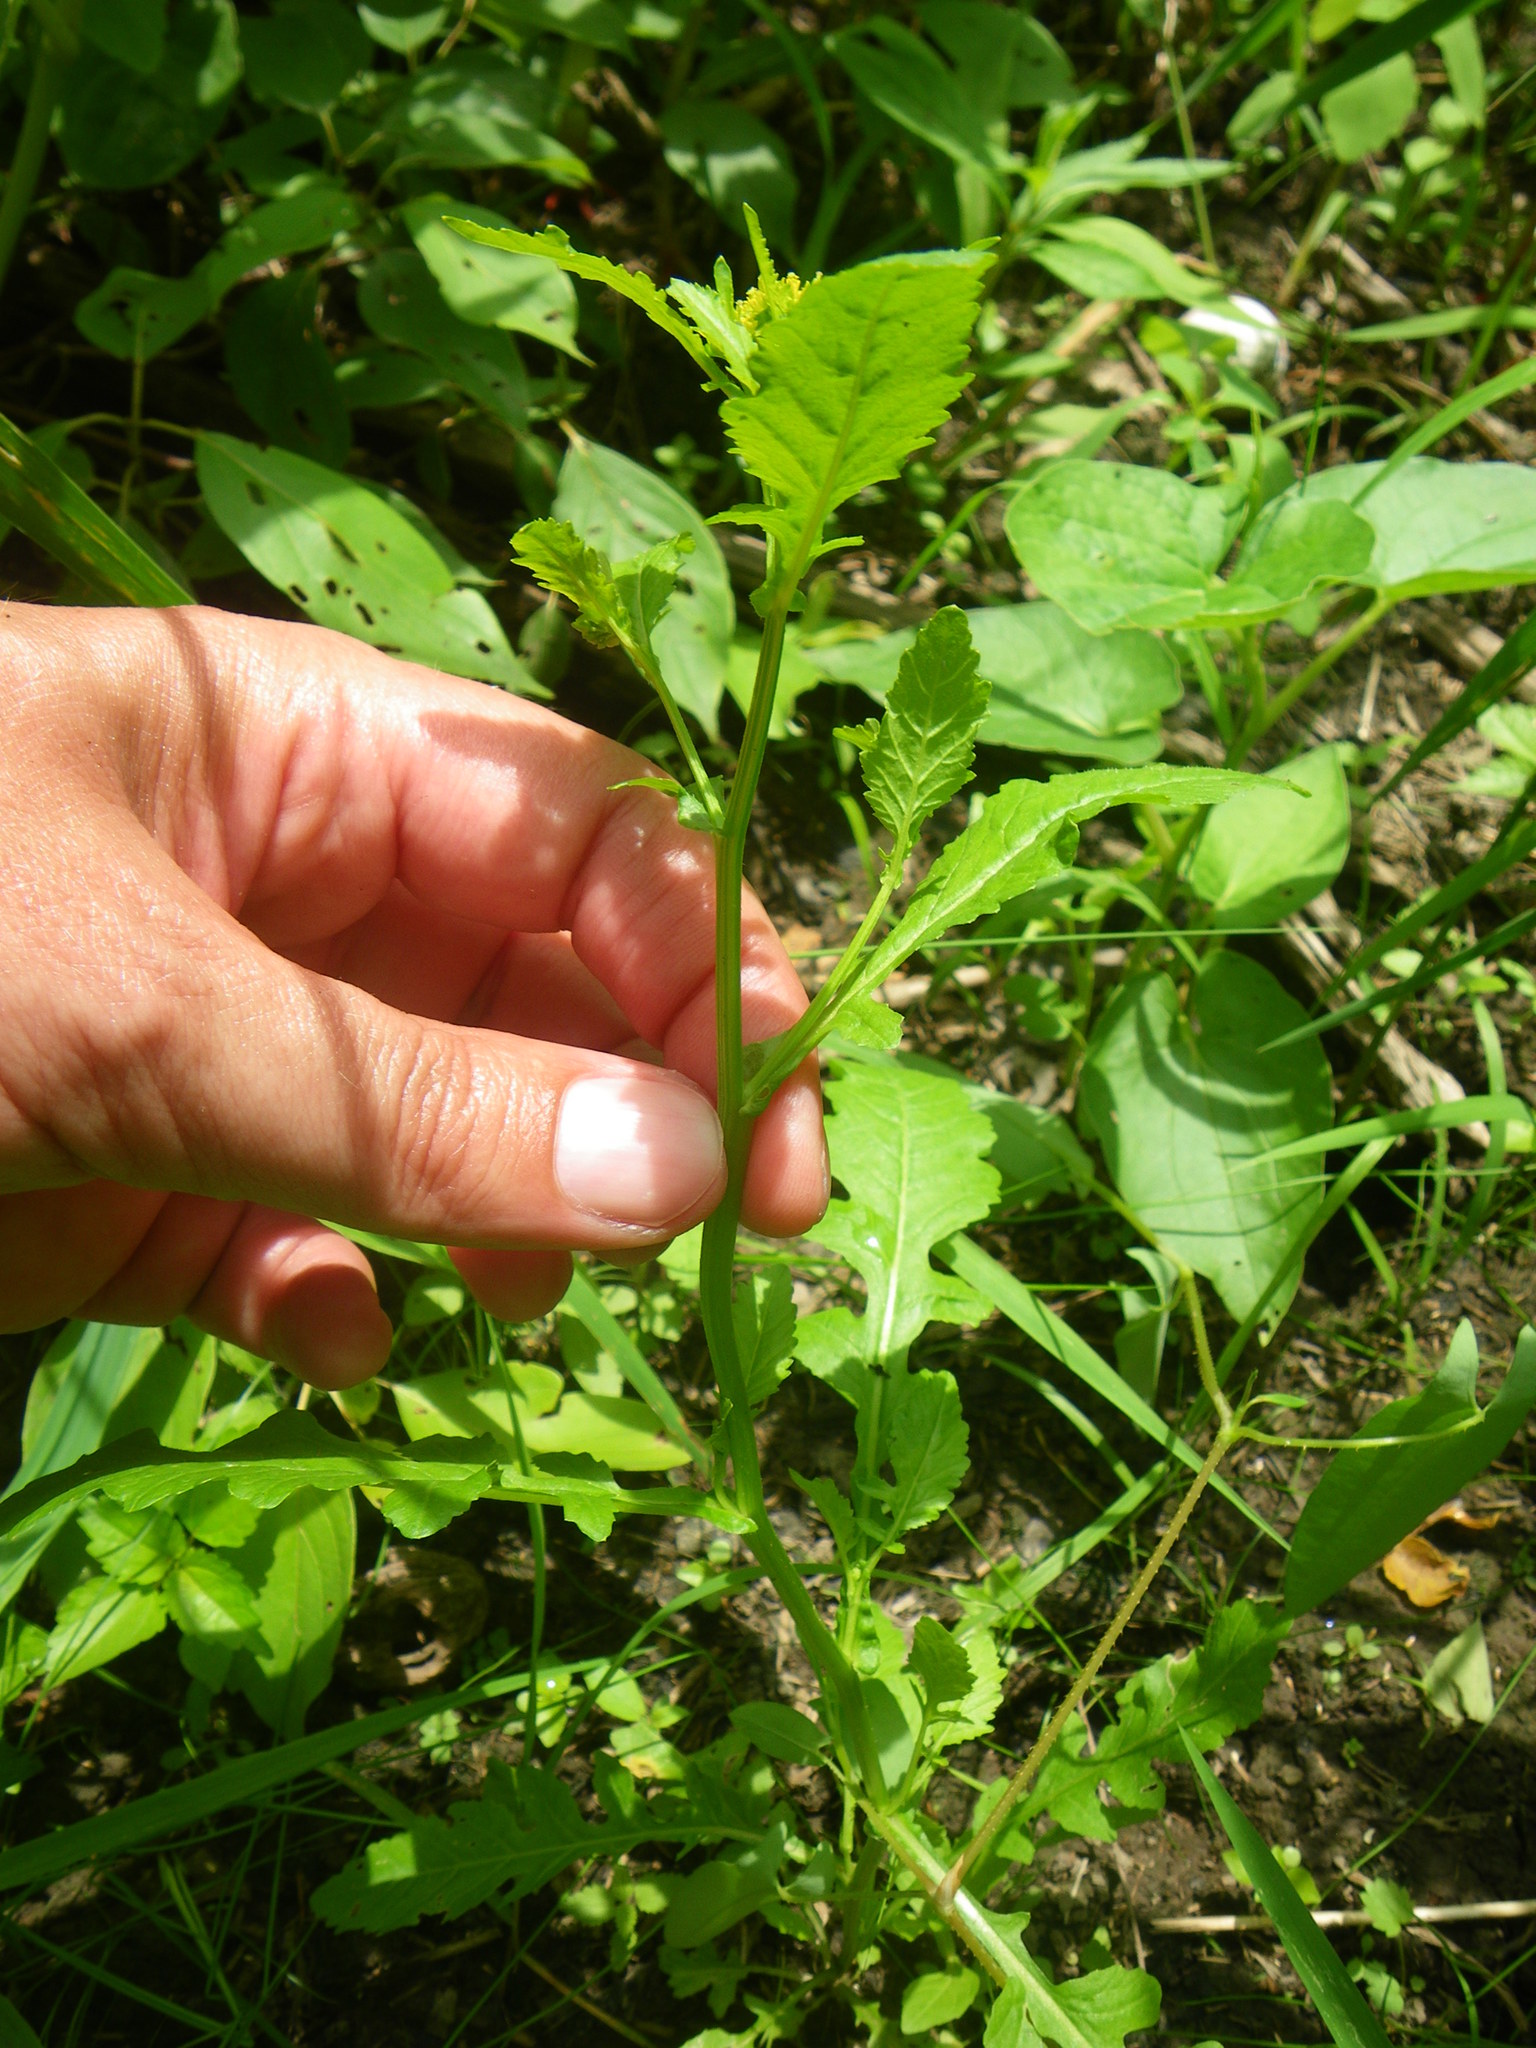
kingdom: Plantae
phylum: Tracheophyta
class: Magnoliopsida
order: Brassicales
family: Brassicaceae
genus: Rorippa
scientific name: Rorippa palustris
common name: Marsh yellow-cress
